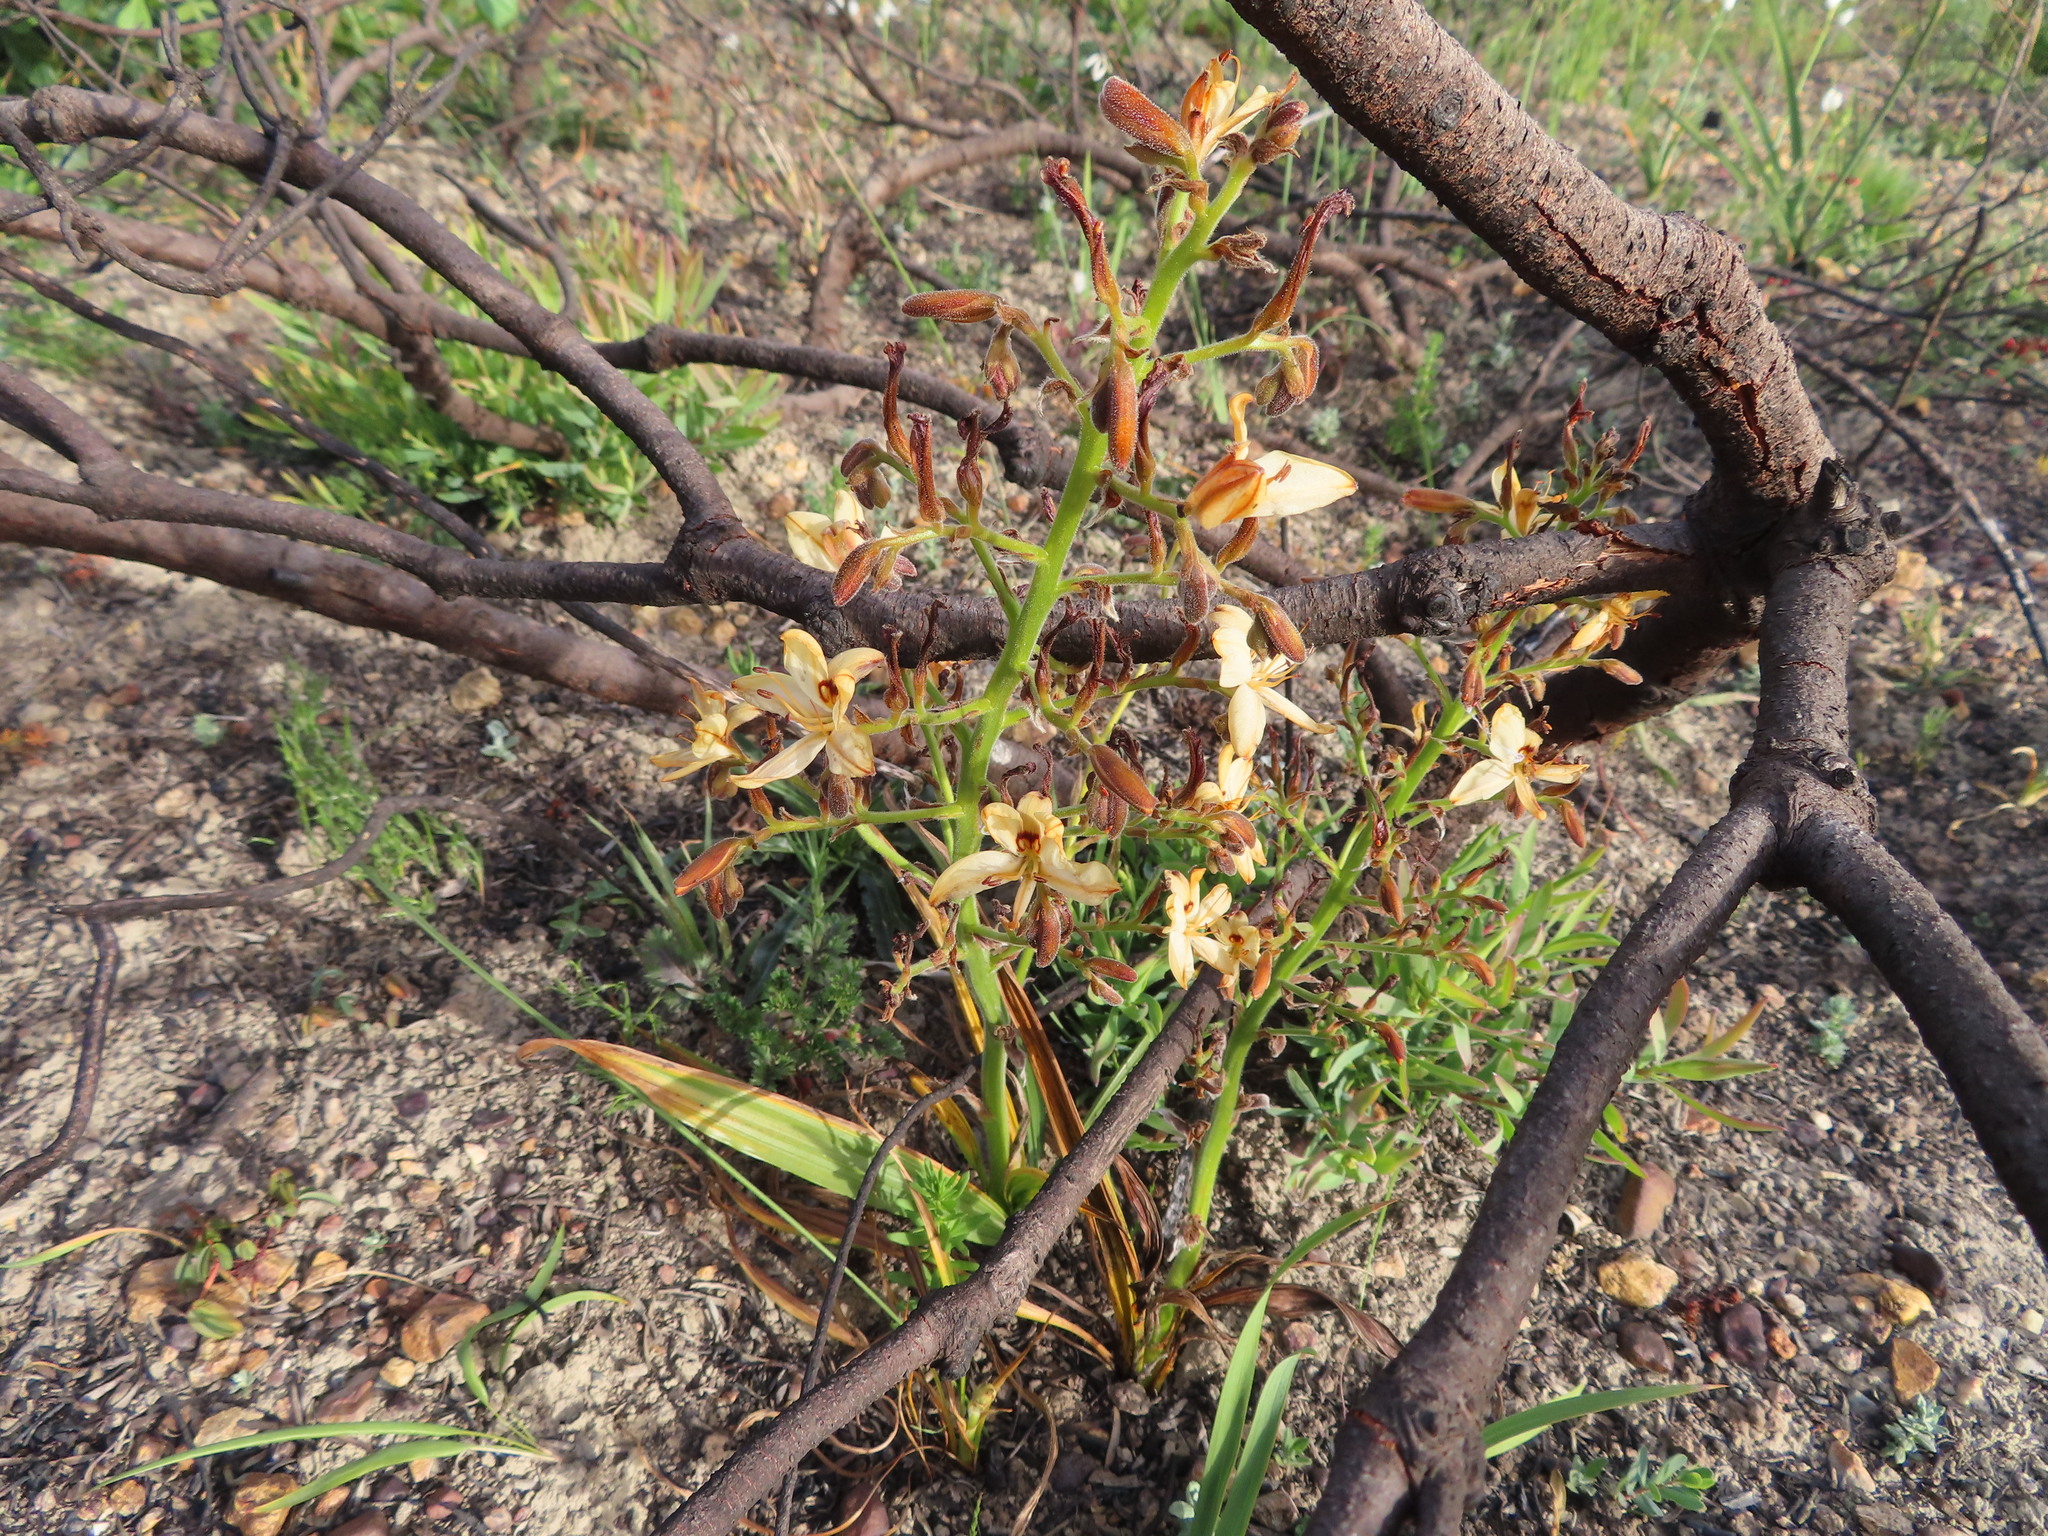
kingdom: Plantae
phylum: Tracheophyta
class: Liliopsida
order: Commelinales
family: Haemodoraceae
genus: Wachendorfia
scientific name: Wachendorfia paniculata
